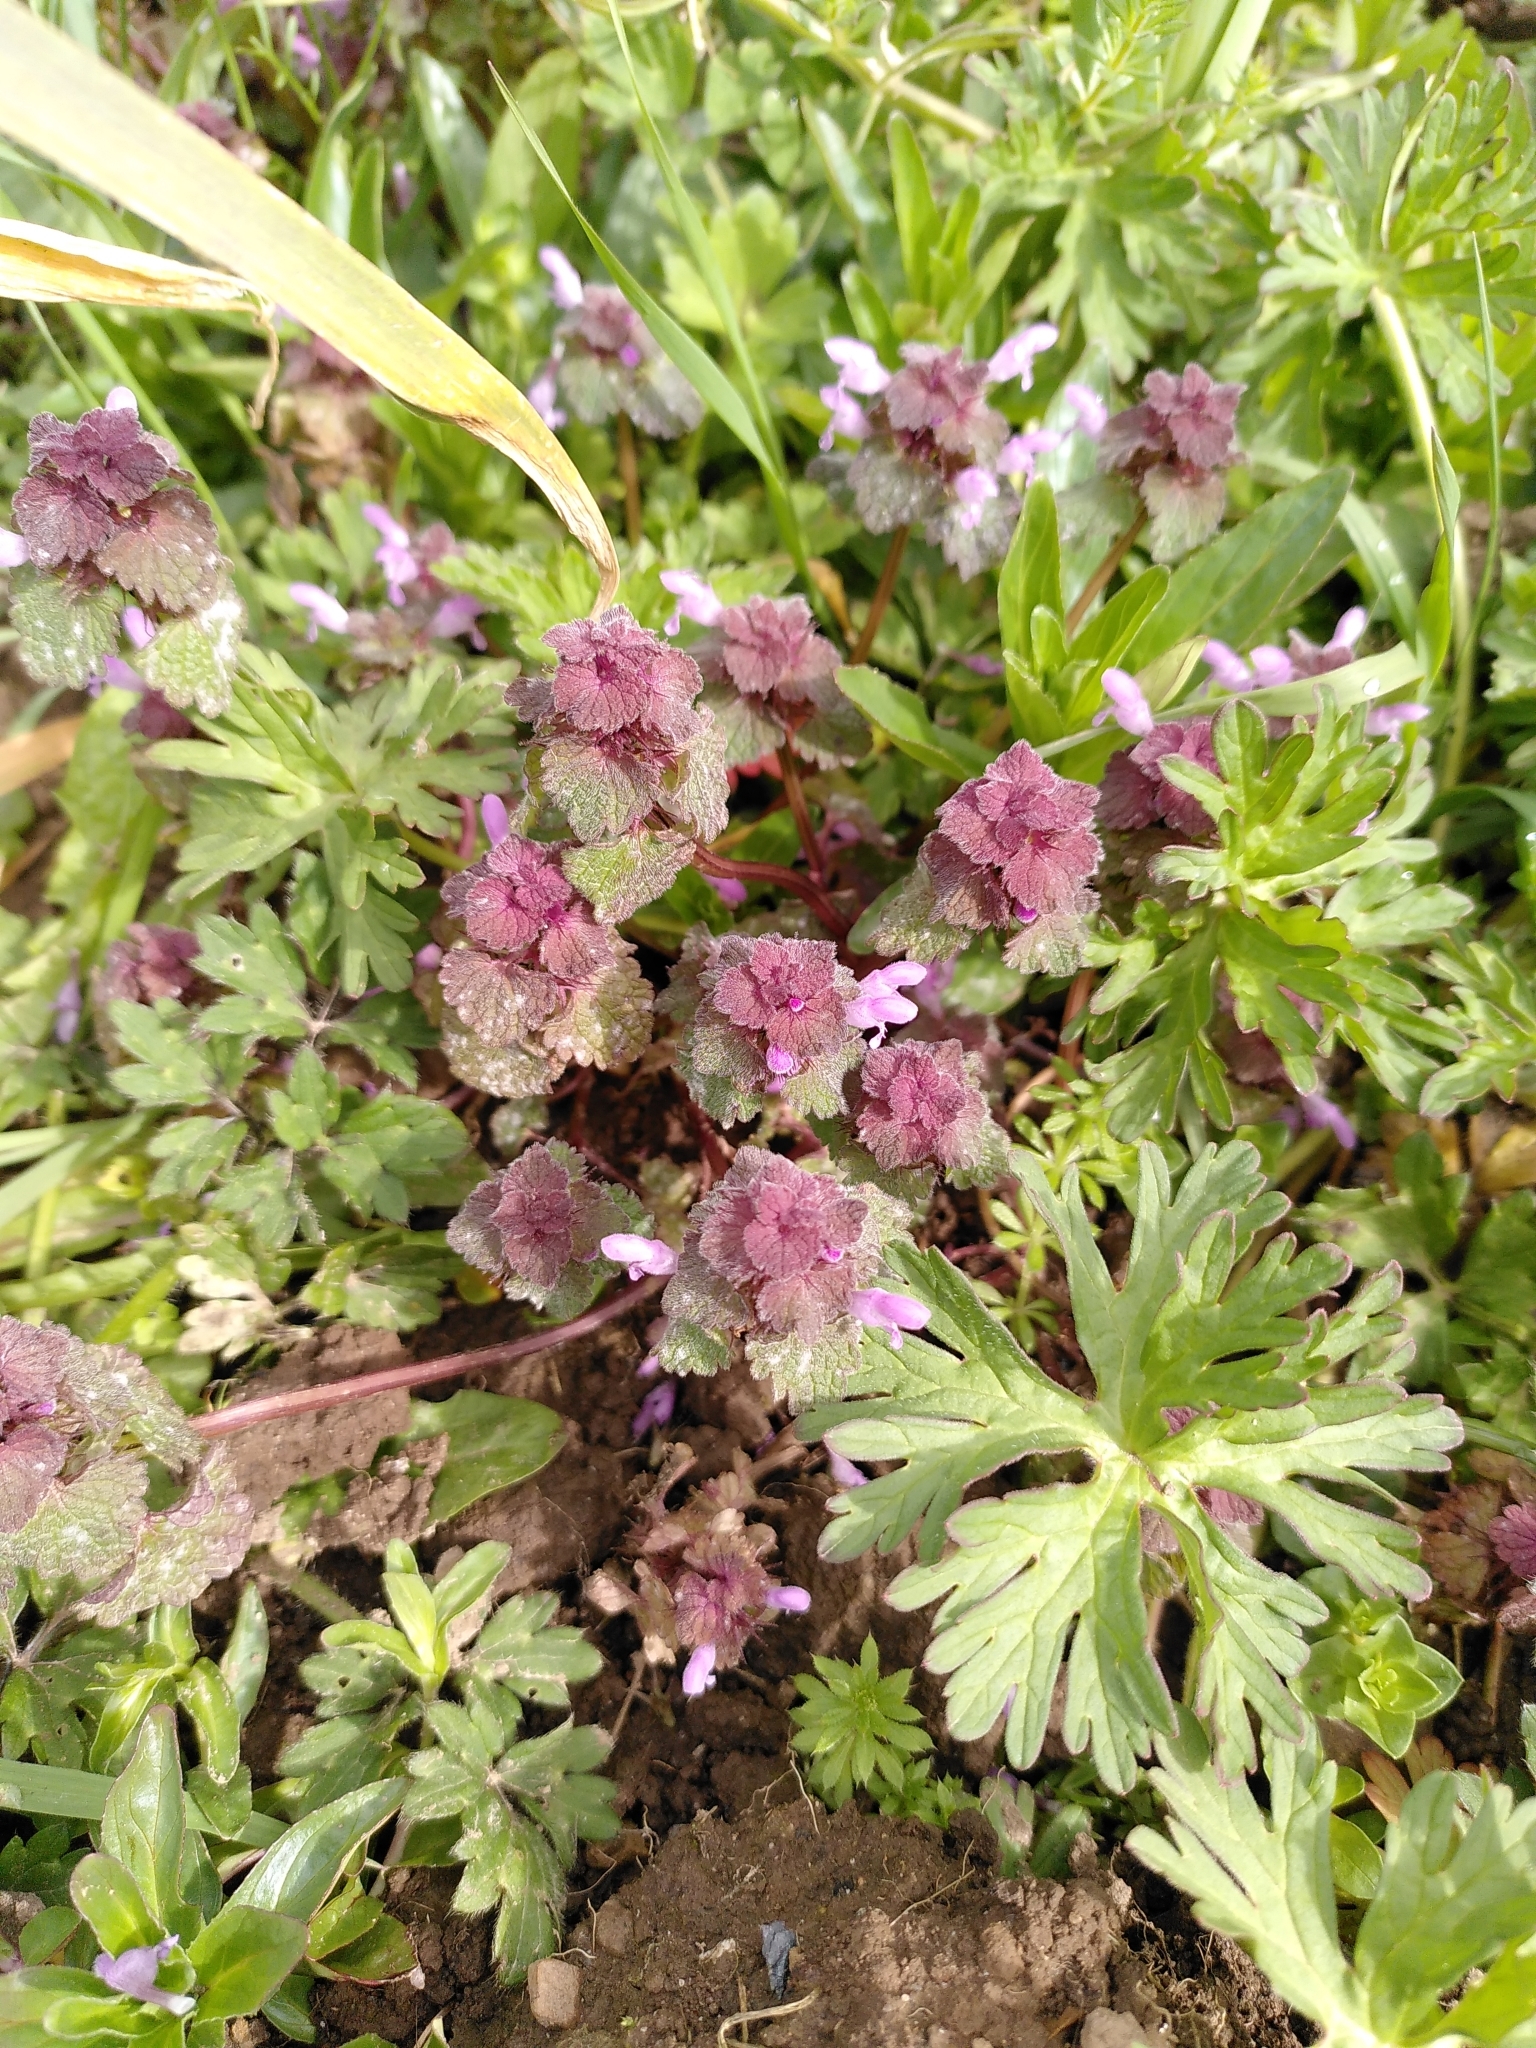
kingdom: Plantae
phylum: Tracheophyta
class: Magnoliopsida
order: Lamiales
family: Lamiaceae
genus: Lamium
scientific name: Lamium purpureum
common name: Red dead-nettle
